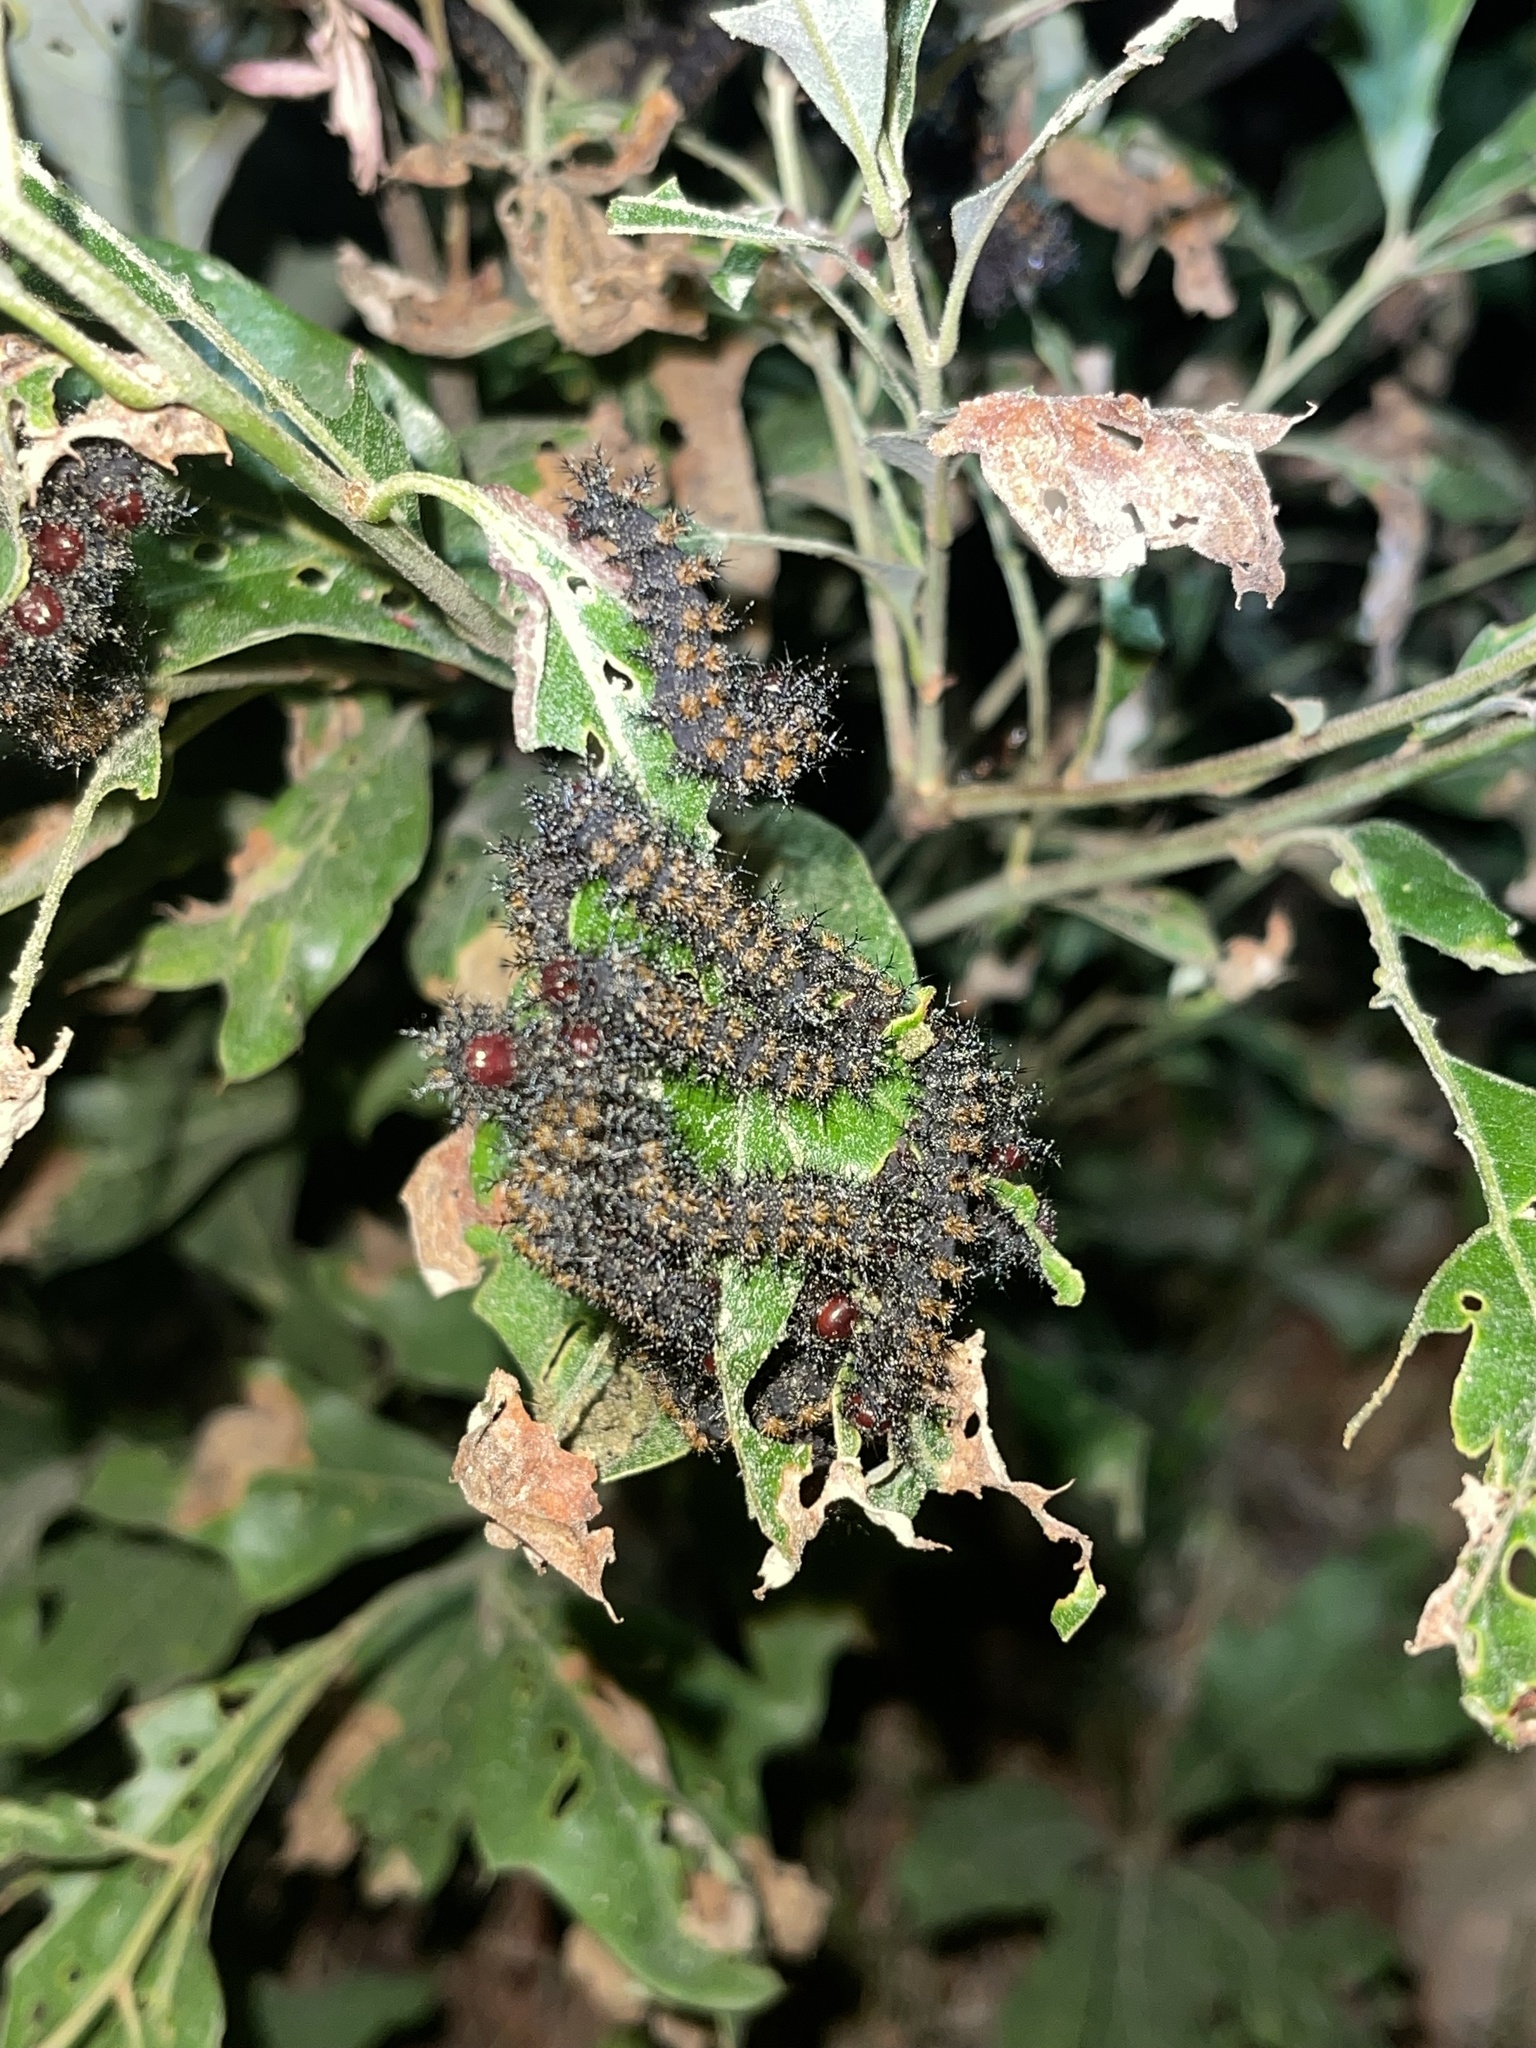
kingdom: Animalia
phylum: Arthropoda
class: Insecta
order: Lepidoptera
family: Saturniidae
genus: Hemileuca
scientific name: Hemileuca maia
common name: Eastern buckmoth
